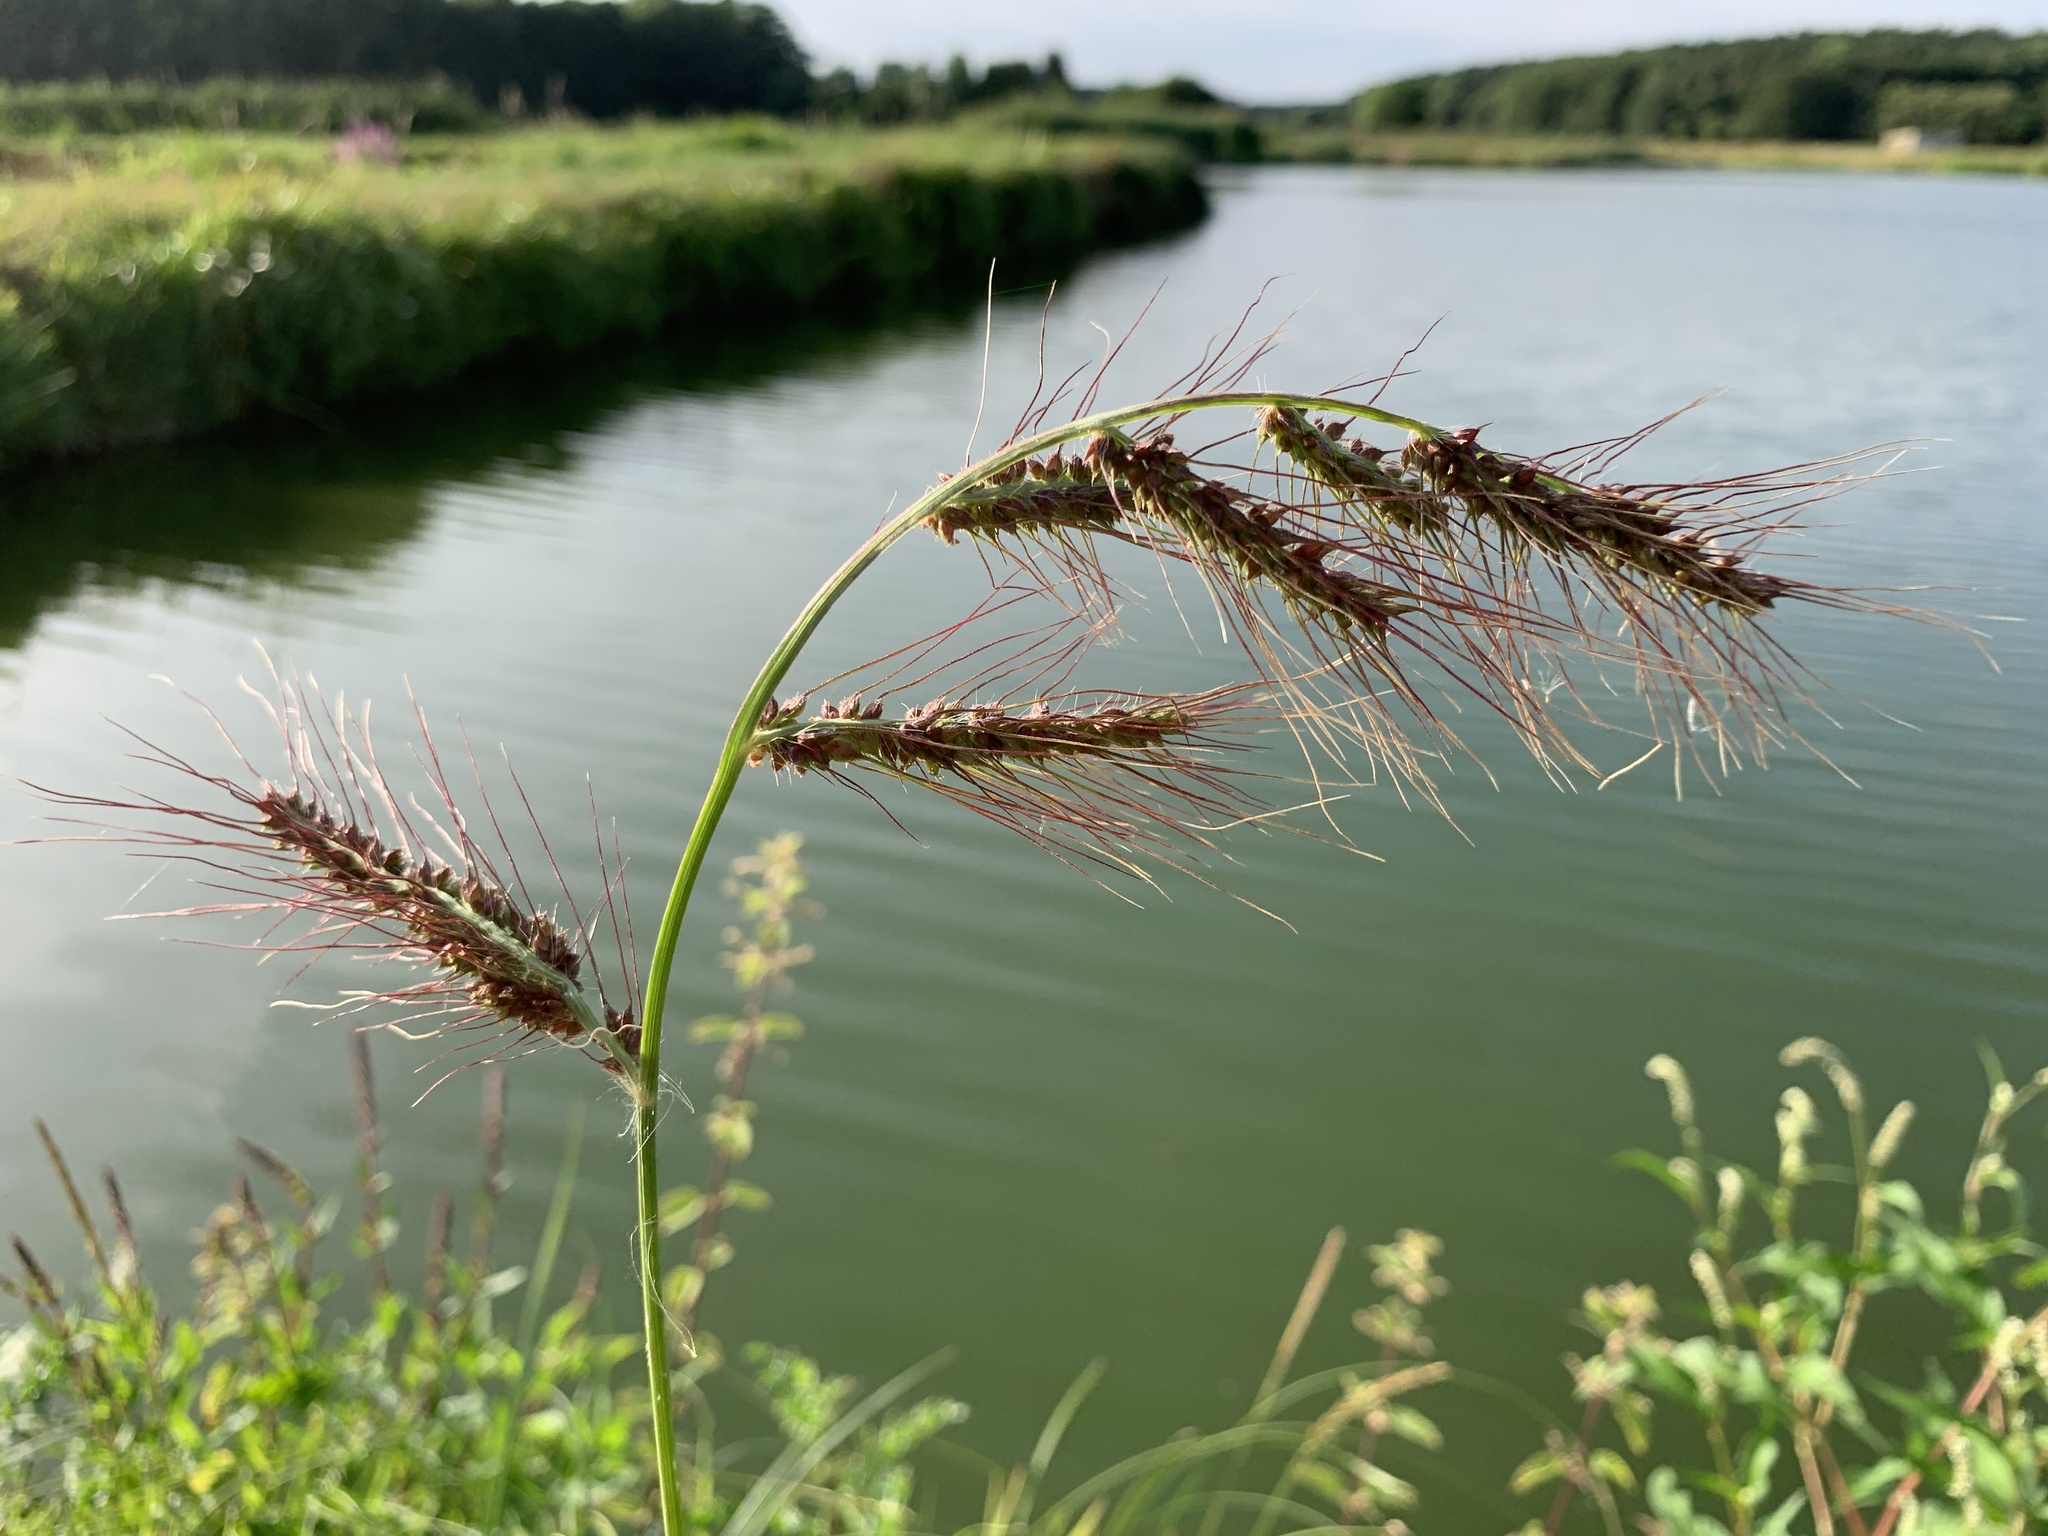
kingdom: Plantae
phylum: Tracheophyta
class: Liliopsida
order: Poales
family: Poaceae
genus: Echinochloa
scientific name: Echinochloa crus-galli
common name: Cockspur
